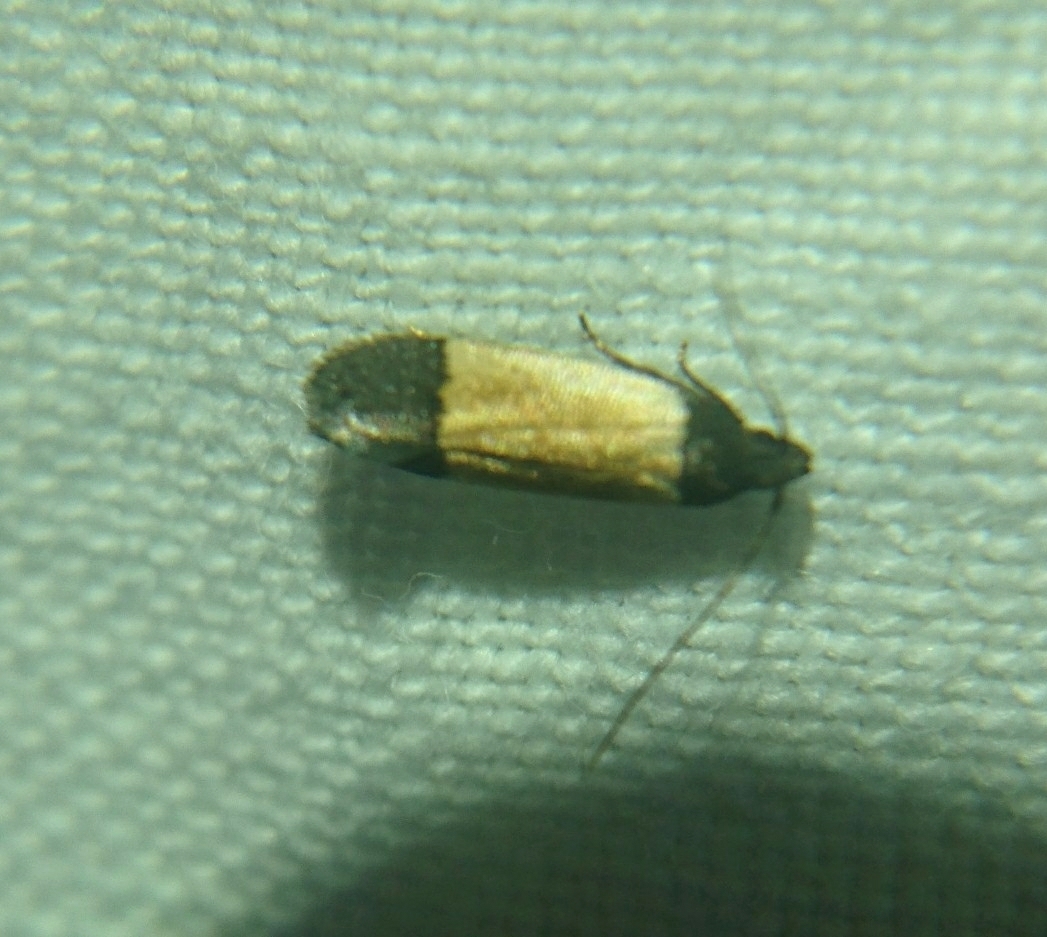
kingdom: Animalia
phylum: Arthropoda
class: Insecta
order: Lepidoptera
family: Gelechiidae
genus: Anacampsis
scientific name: Anacampsis coverdalella
